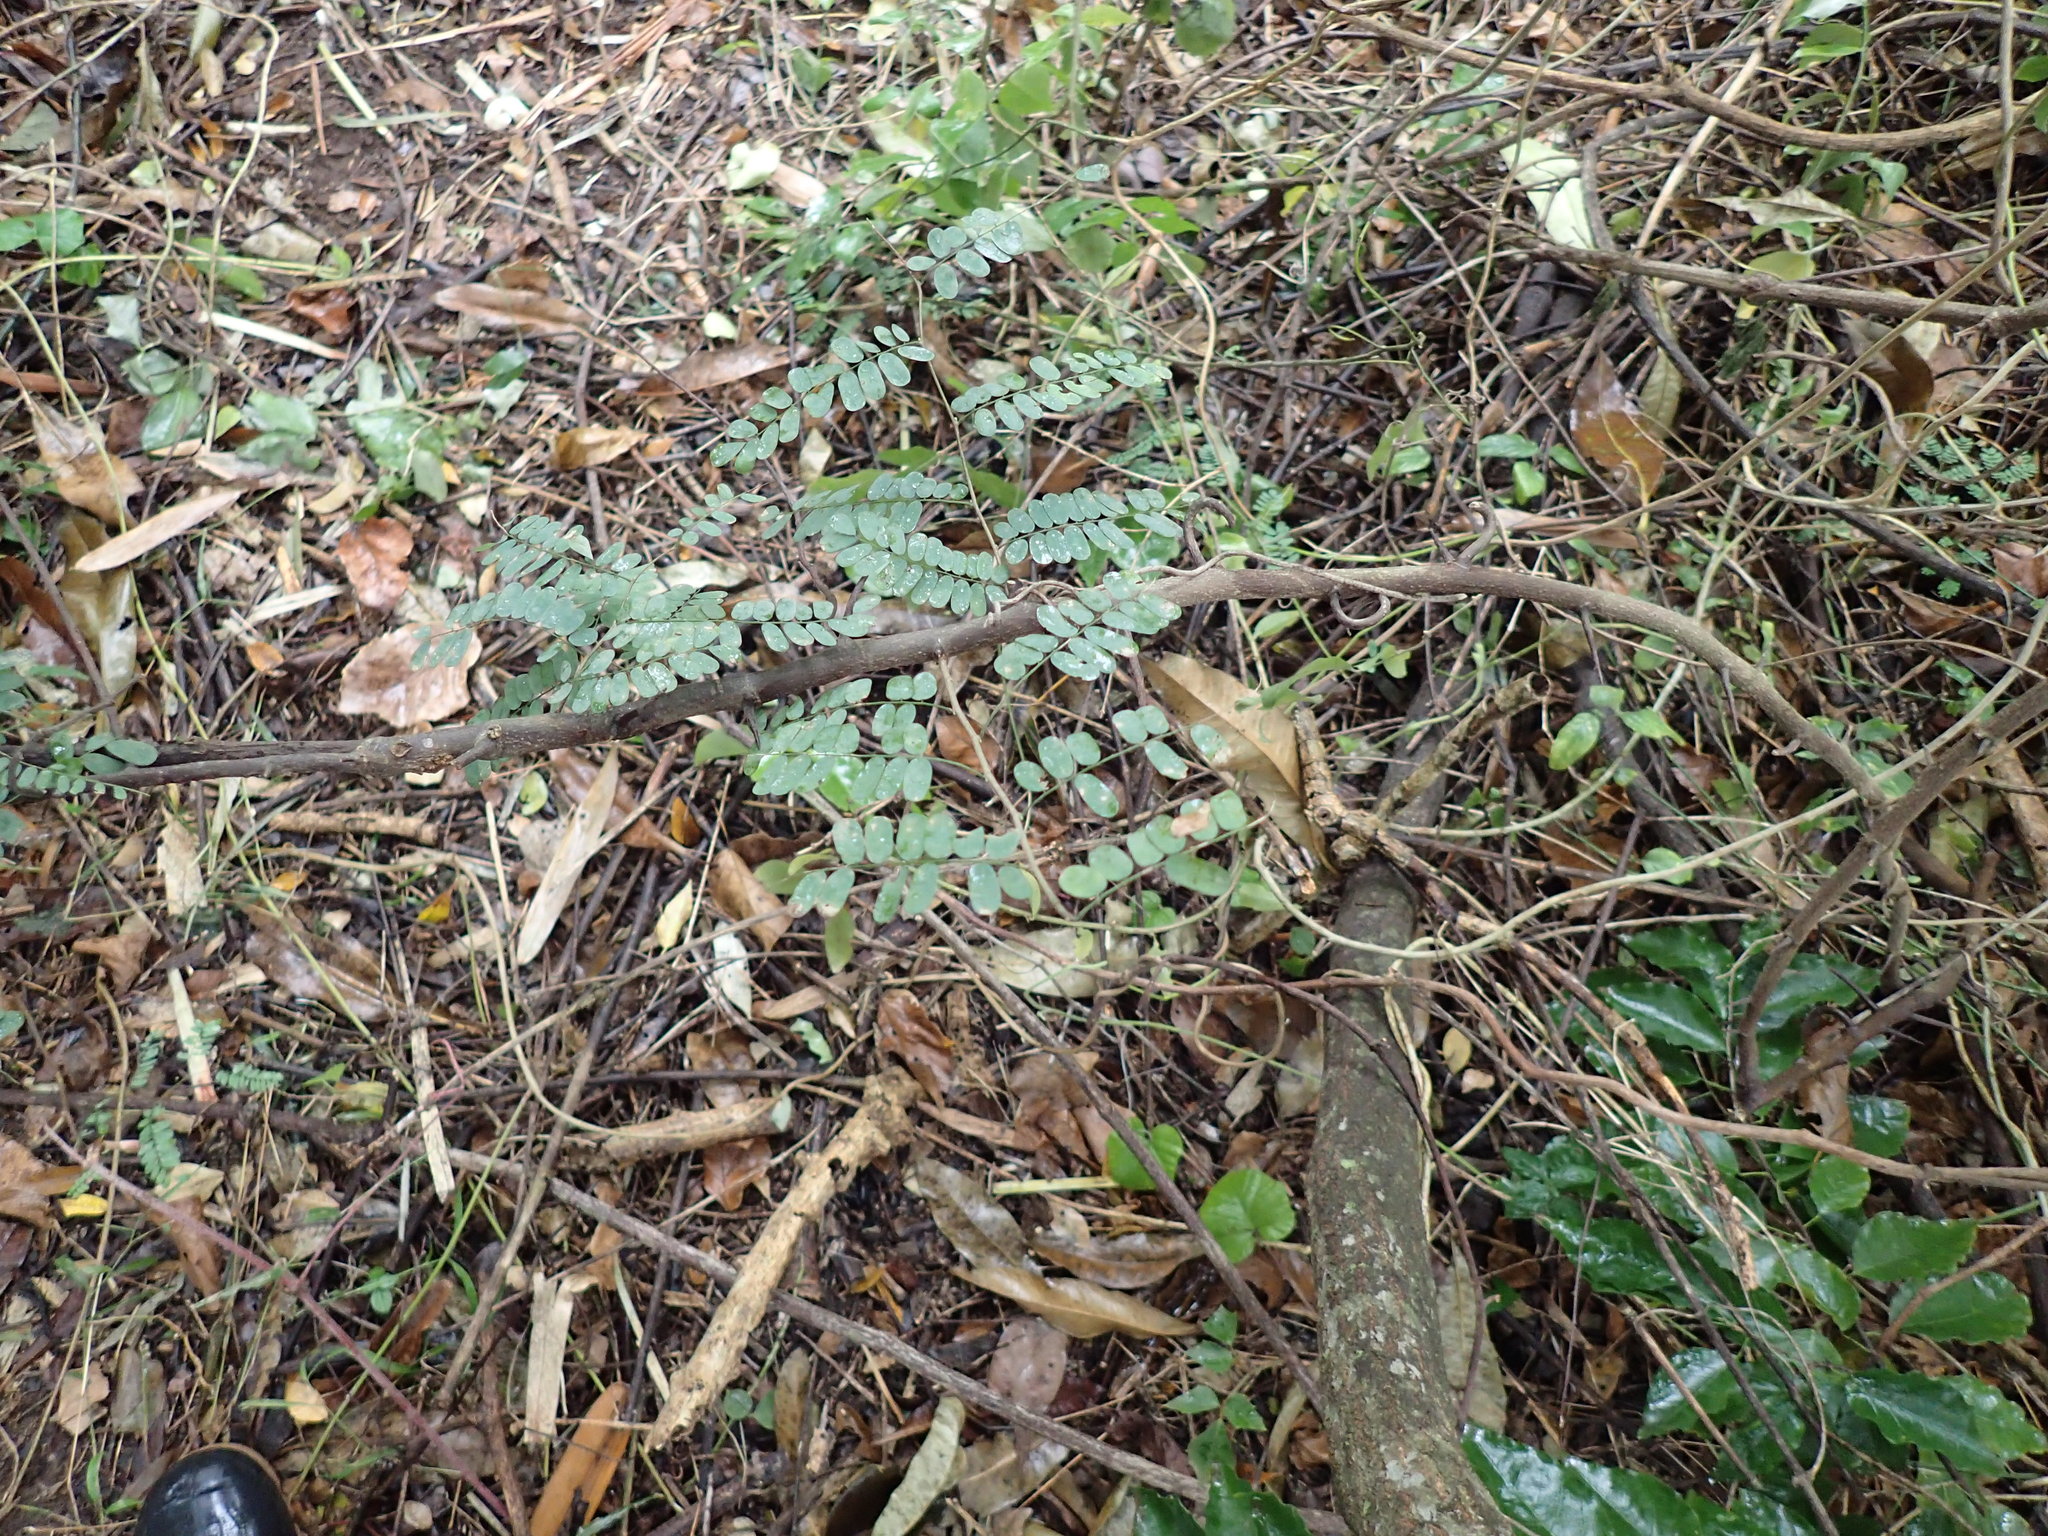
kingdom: Plantae
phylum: Tracheophyta
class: Magnoliopsida
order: Fabales
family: Fabaceae
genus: Dalbergia
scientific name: Dalbergia armata
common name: Hluhluwe climber
